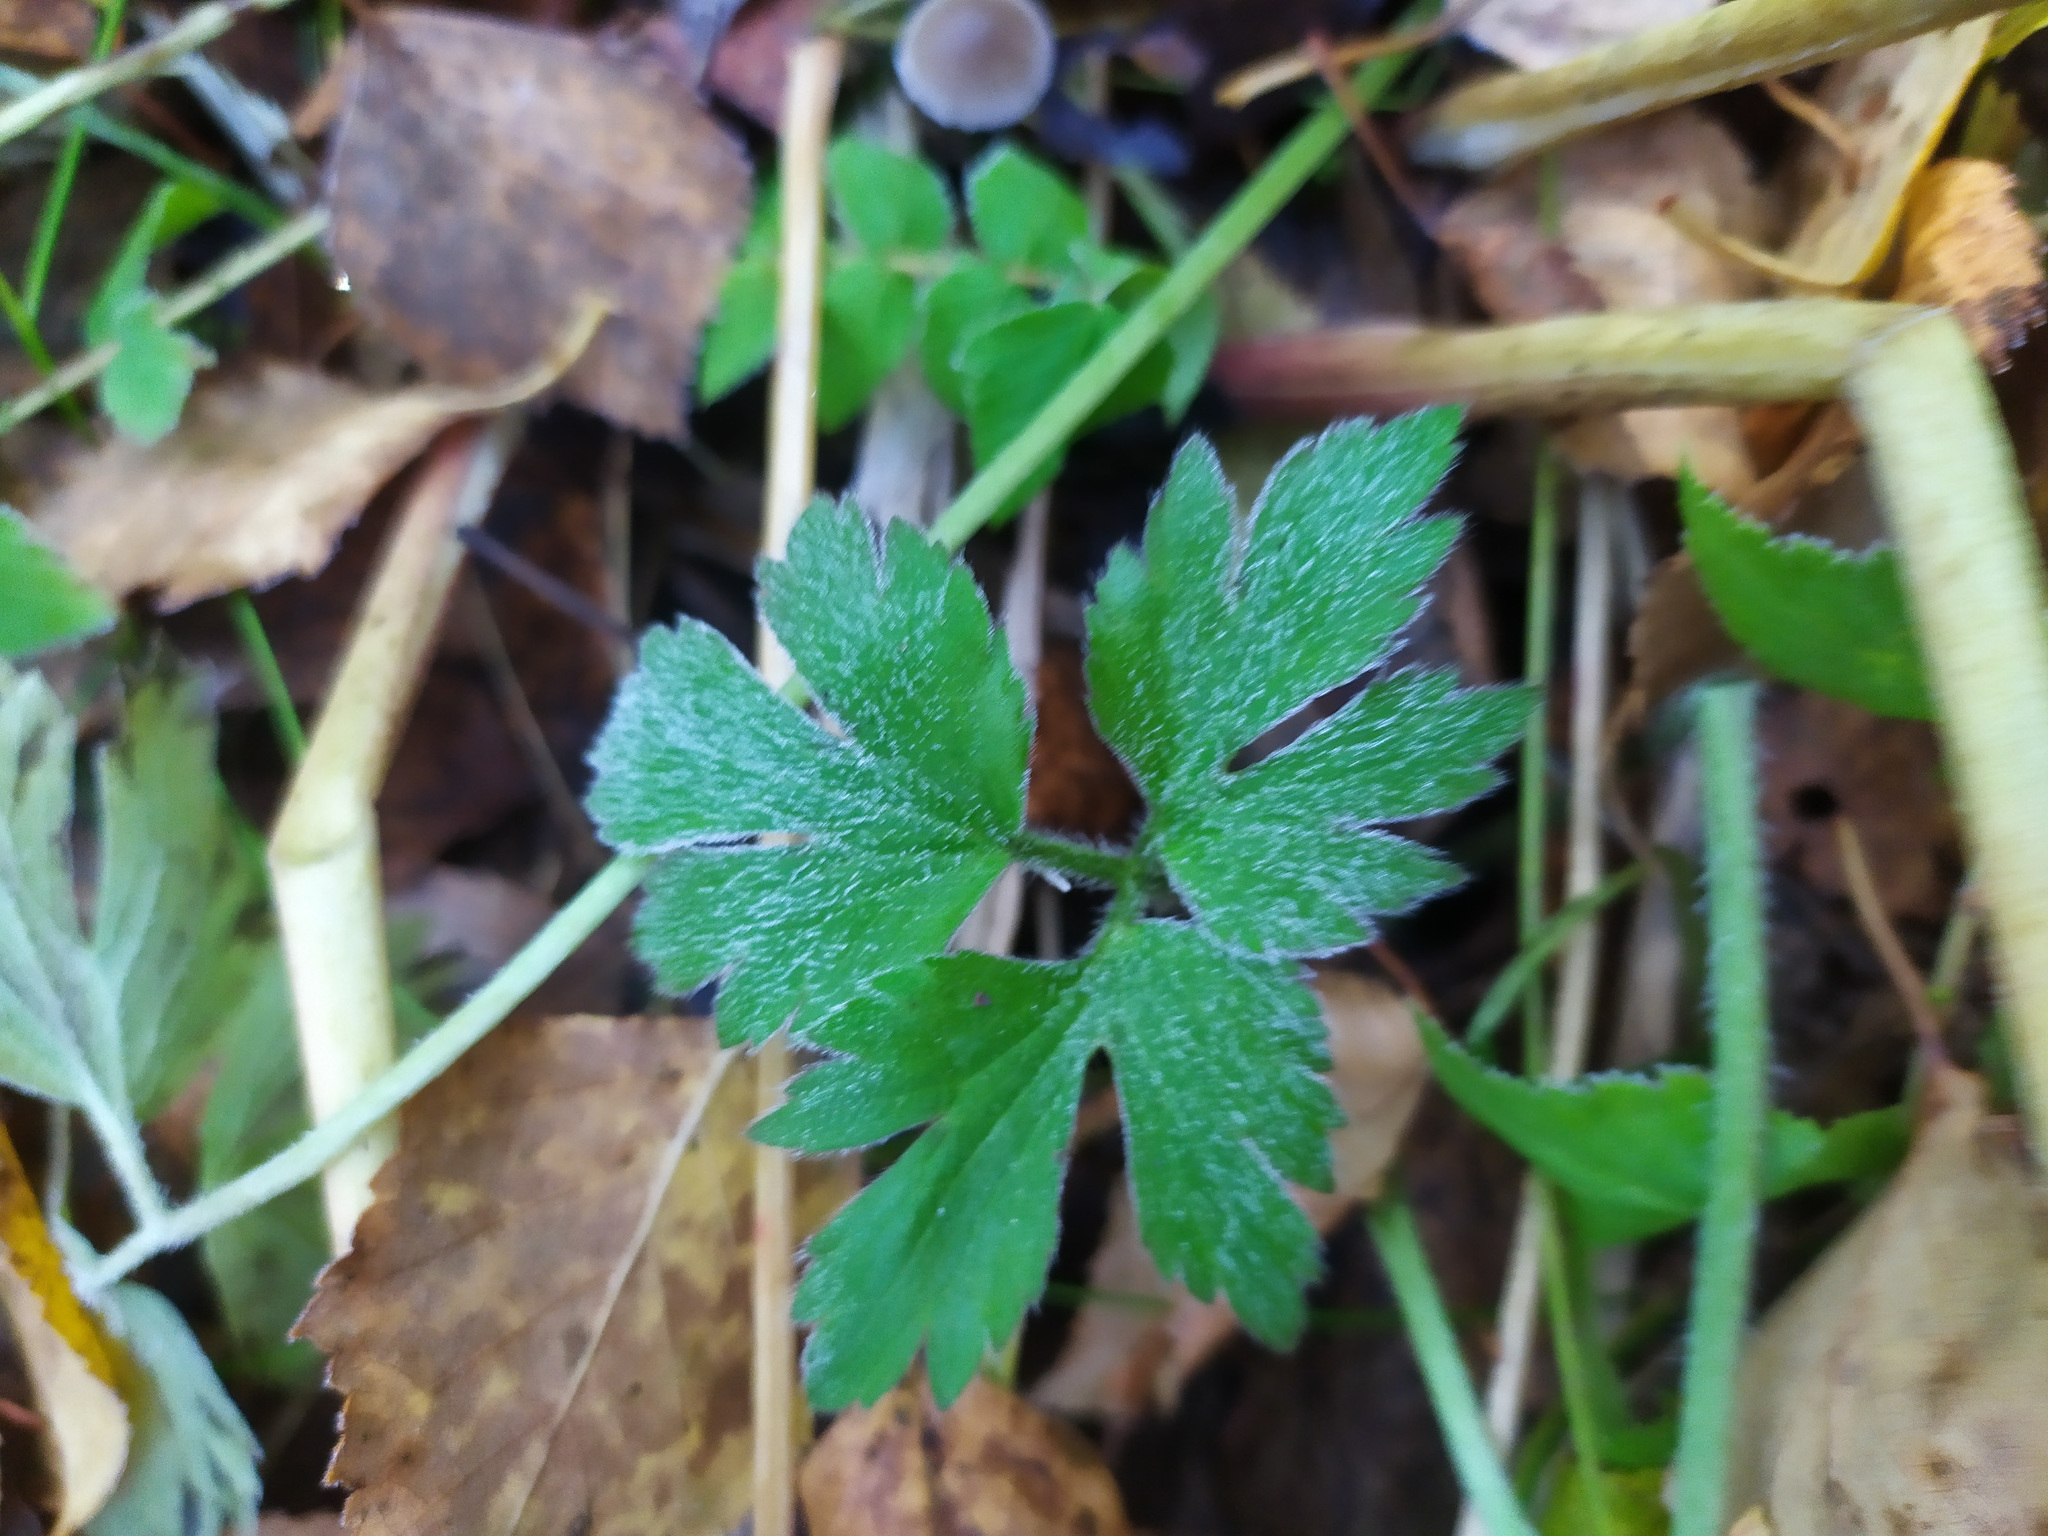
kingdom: Plantae
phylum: Tracheophyta
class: Magnoliopsida
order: Ranunculales
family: Ranunculaceae
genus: Ranunculus
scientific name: Ranunculus repens
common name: Creeping buttercup
